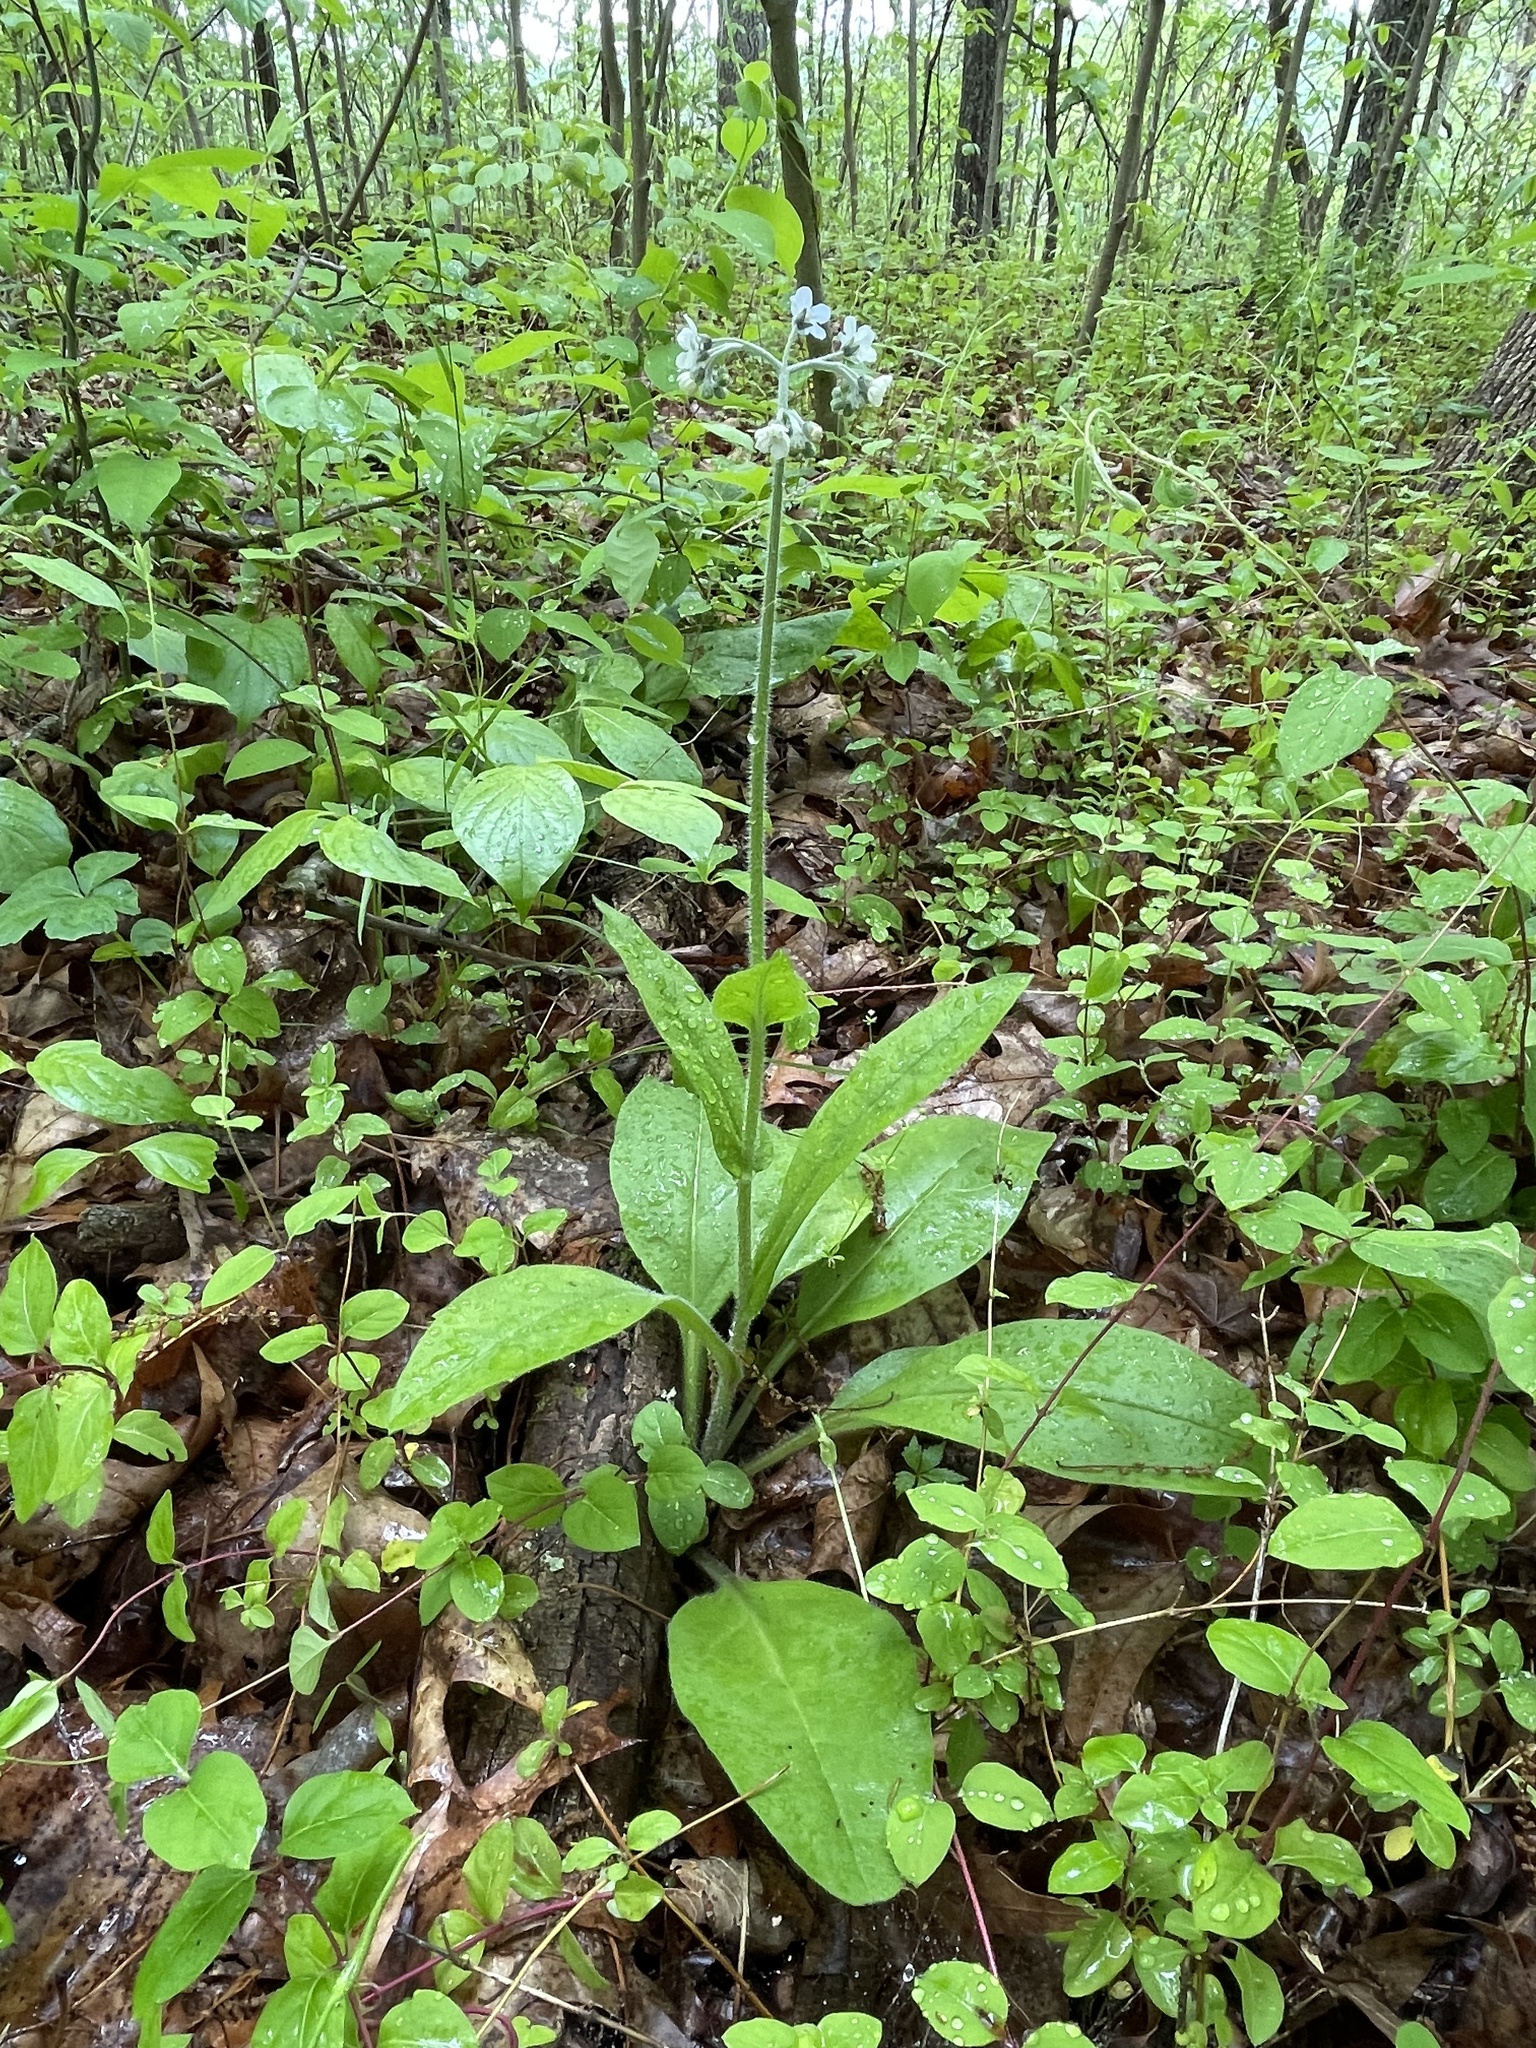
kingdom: Plantae
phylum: Tracheophyta
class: Magnoliopsida
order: Boraginales
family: Boraginaceae
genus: Andersonglossum
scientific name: Andersonglossum virginianum
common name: Wild comfrey
